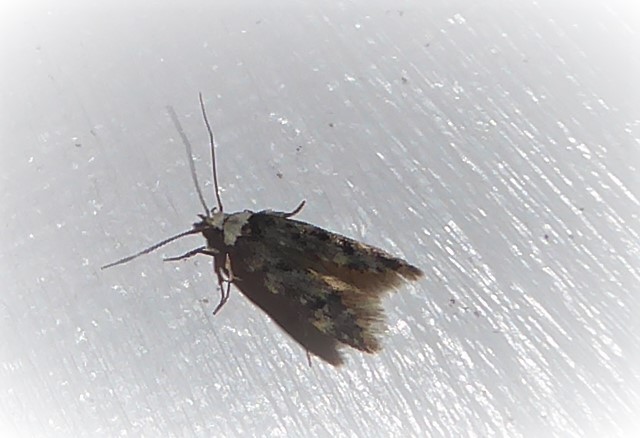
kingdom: Animalia
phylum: Arthropoda
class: Insecta
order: Lepidoptera
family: Oecophoridae
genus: Endrosis
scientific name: Endrosis sarcitrella
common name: White-shouldered house moth
